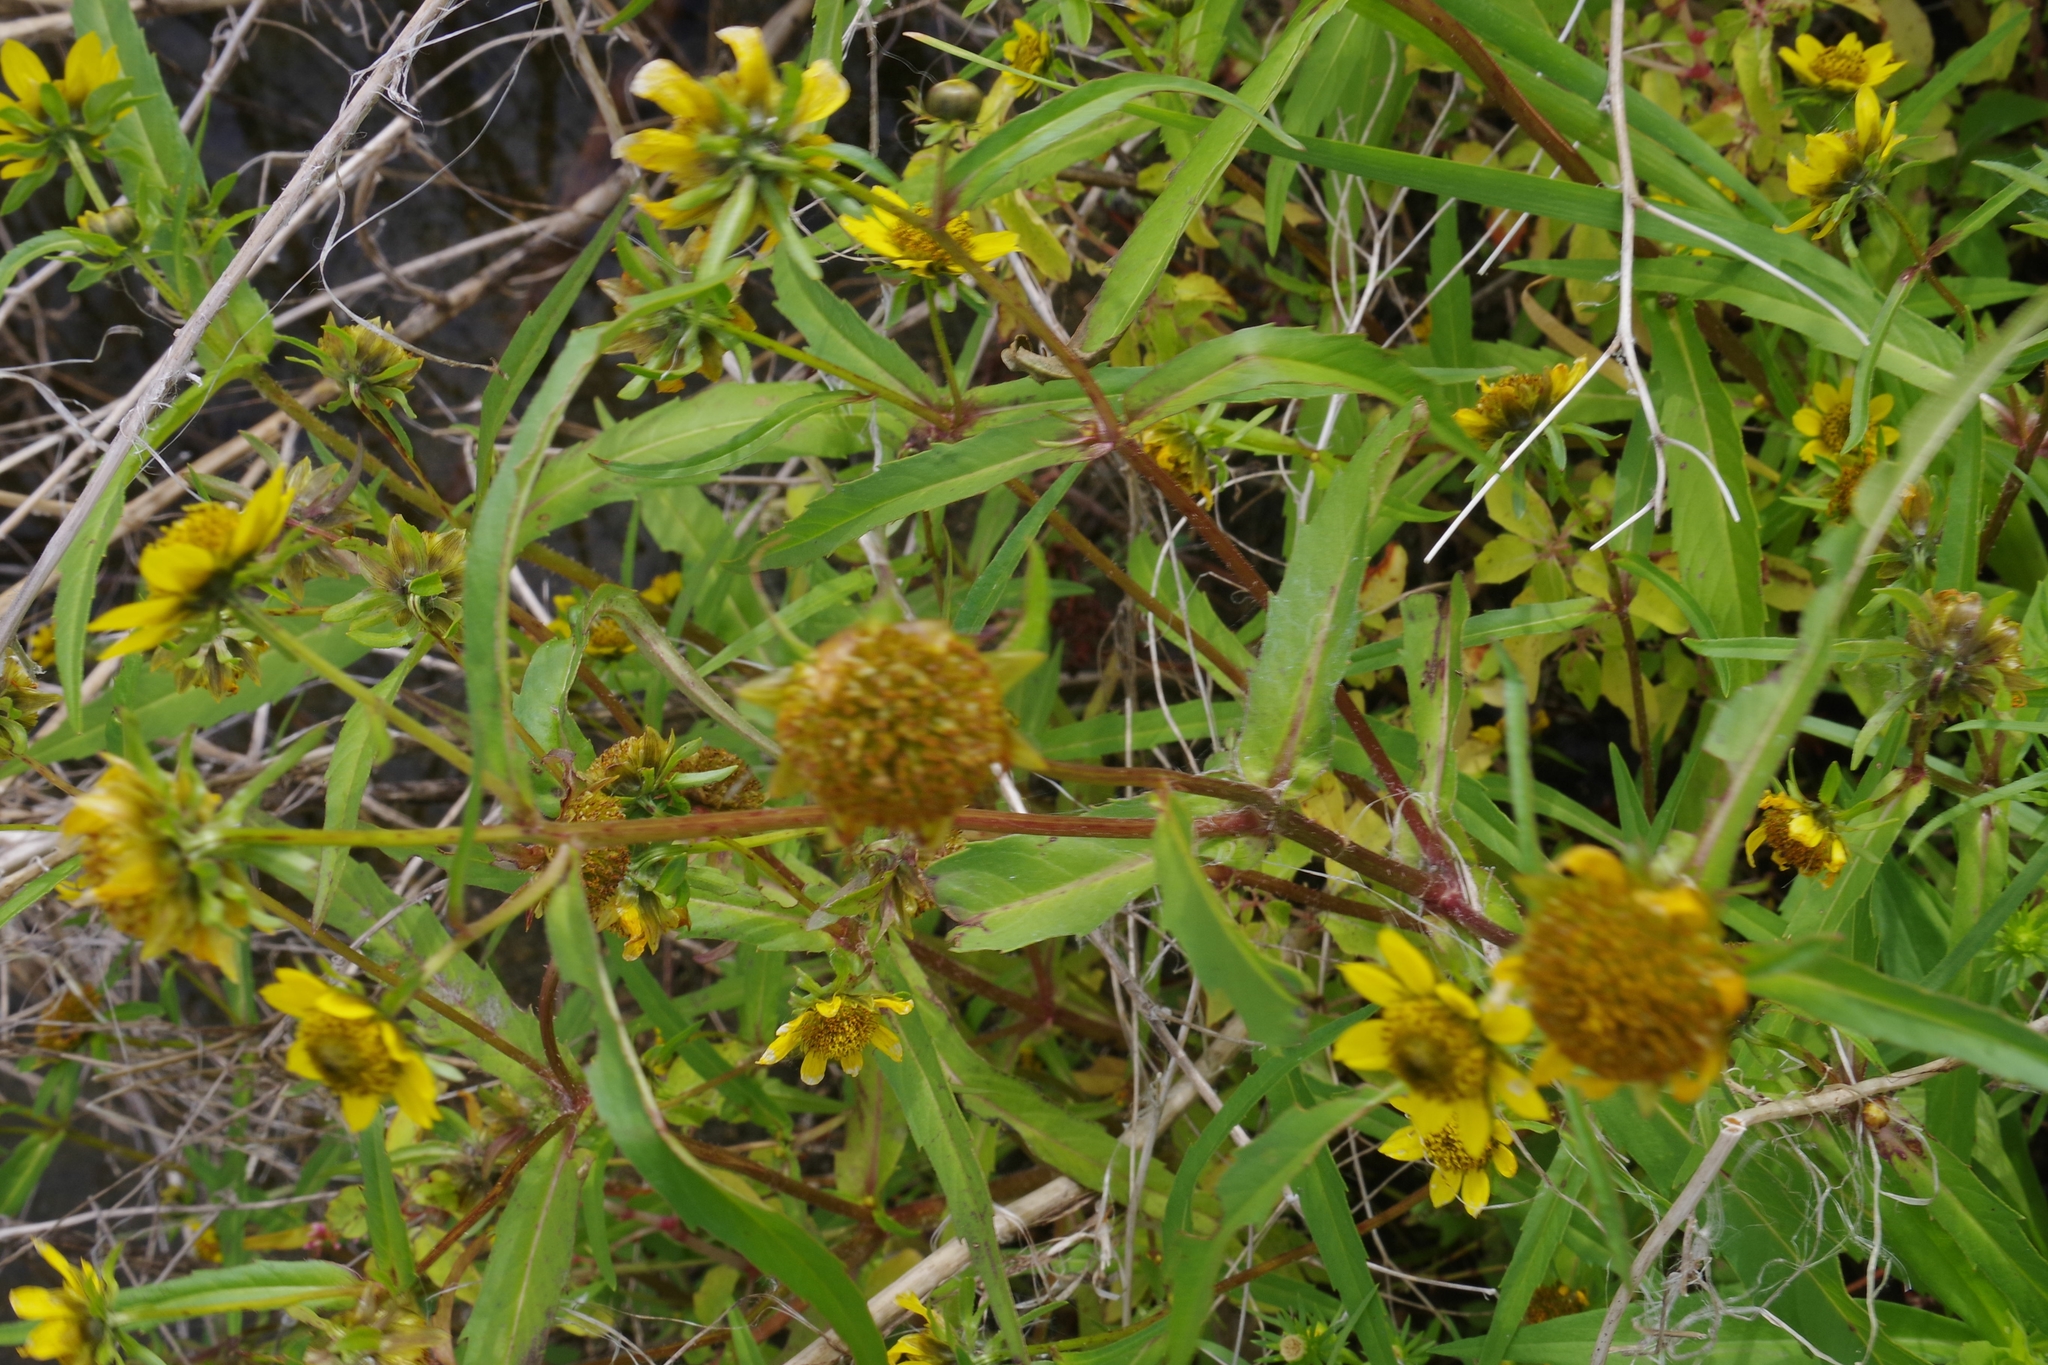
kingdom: Plantae
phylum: Tracheophyta
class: Magnoliopsida
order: Asterales
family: Asteraceae
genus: Bidens
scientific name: Bidens cernua
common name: Nodding bur-marigold
